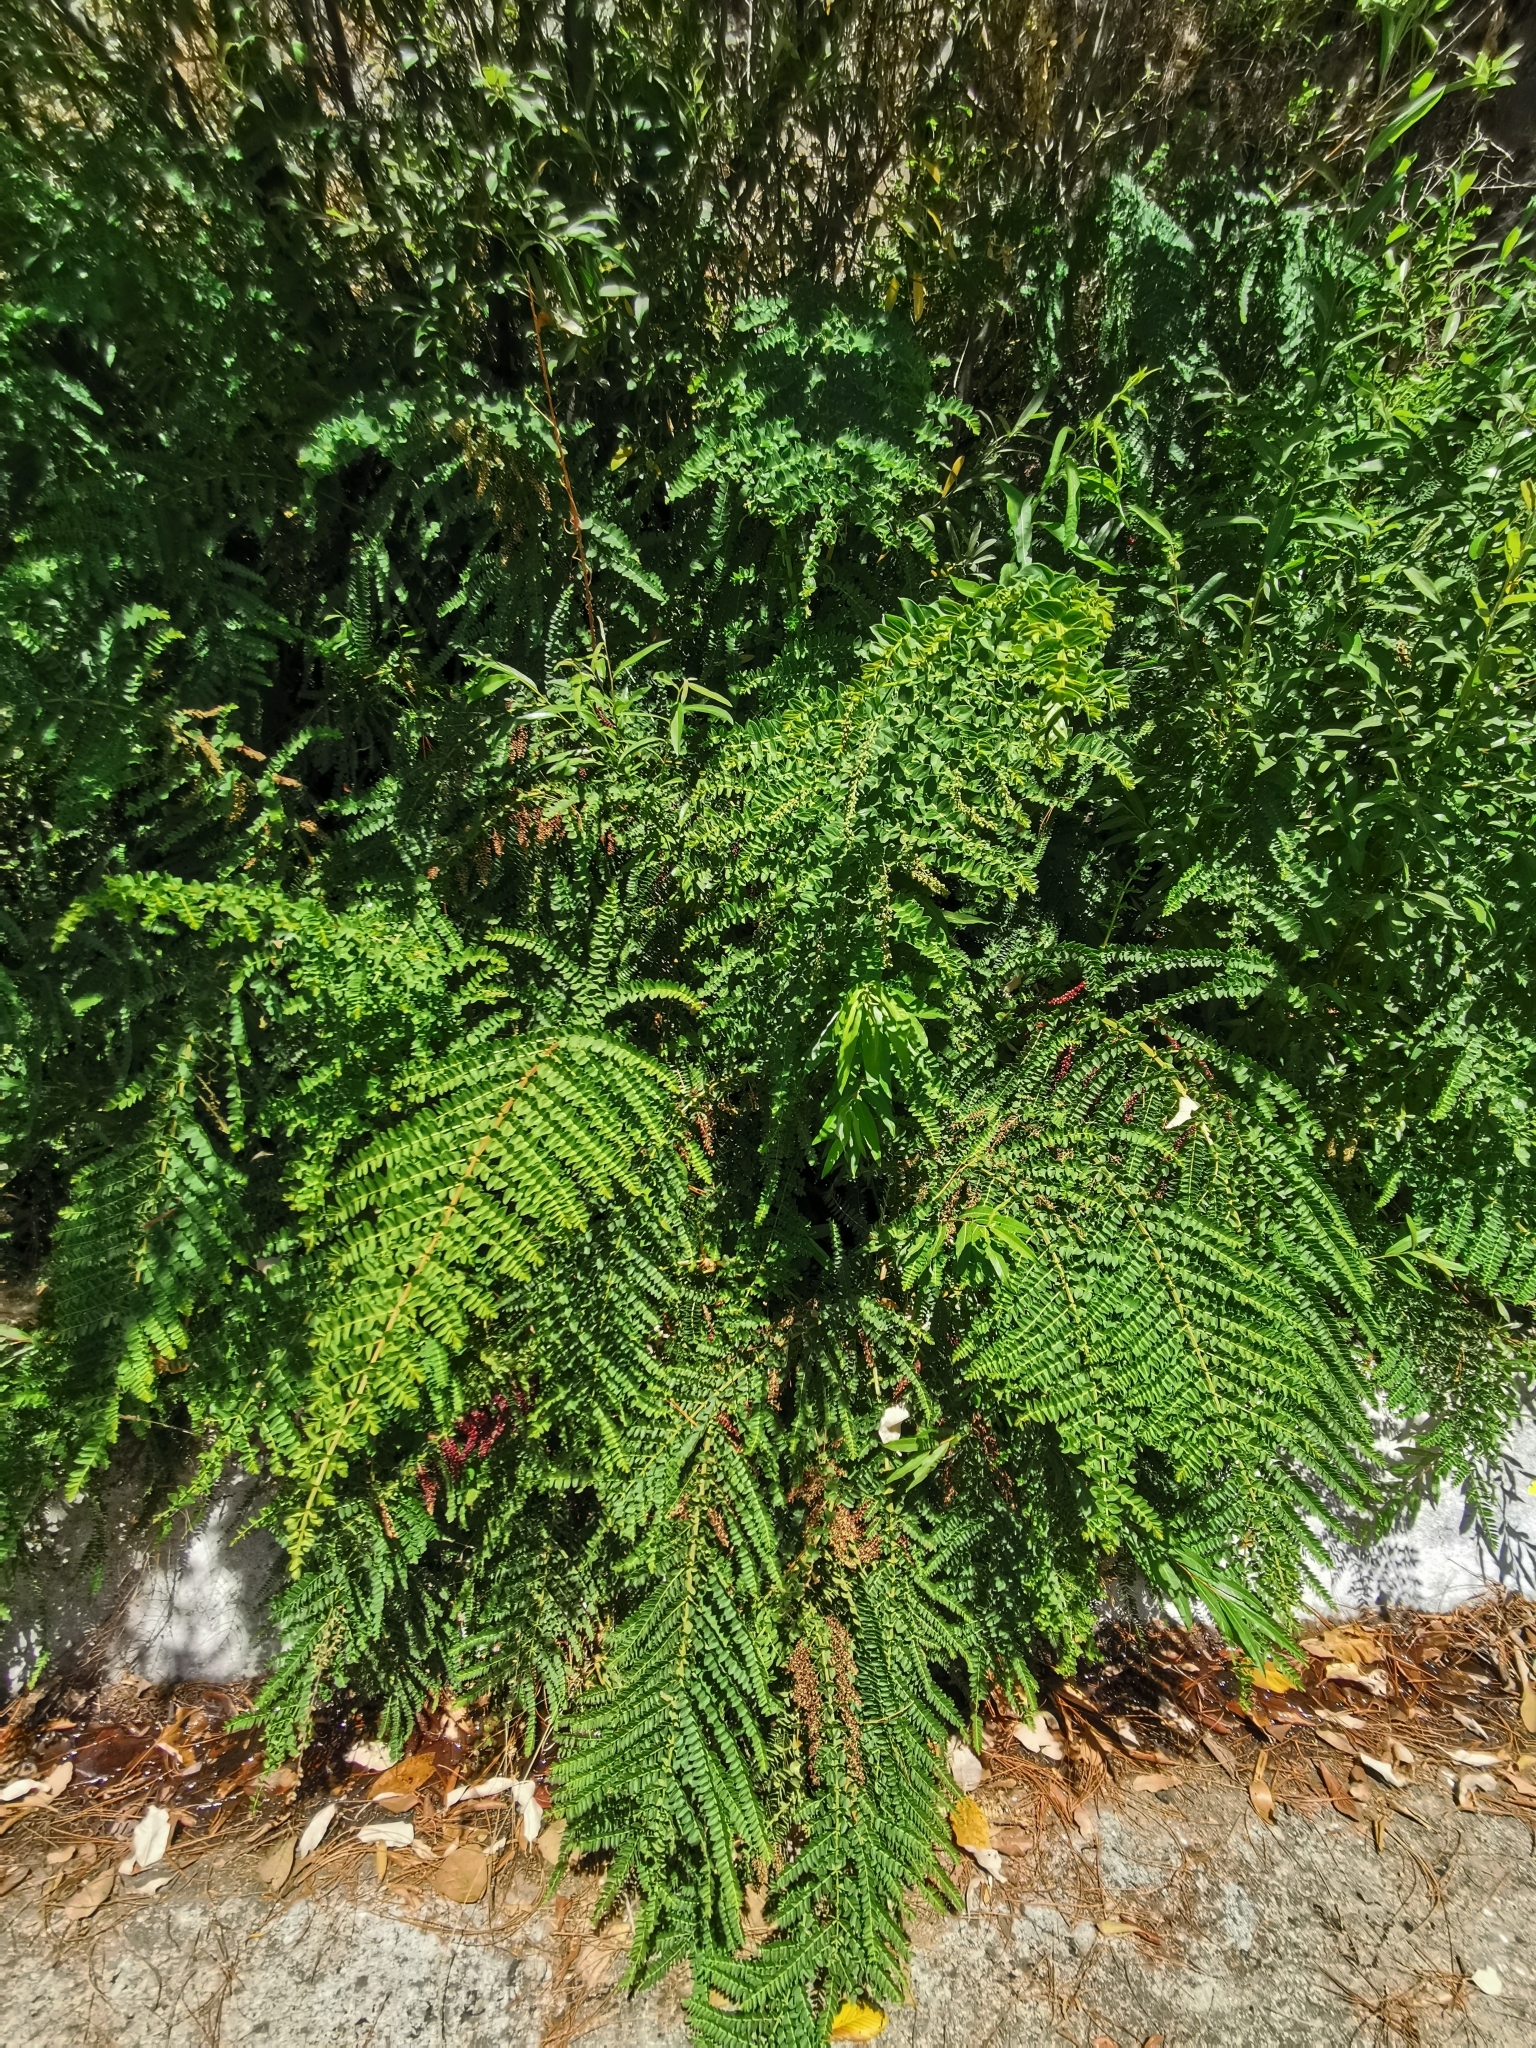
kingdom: Plantae
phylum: Tracheophyta
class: Magnoliopsida
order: Cucurbitales
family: Coriariaceae
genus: Coriaria
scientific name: Coriaria ruscifolia
